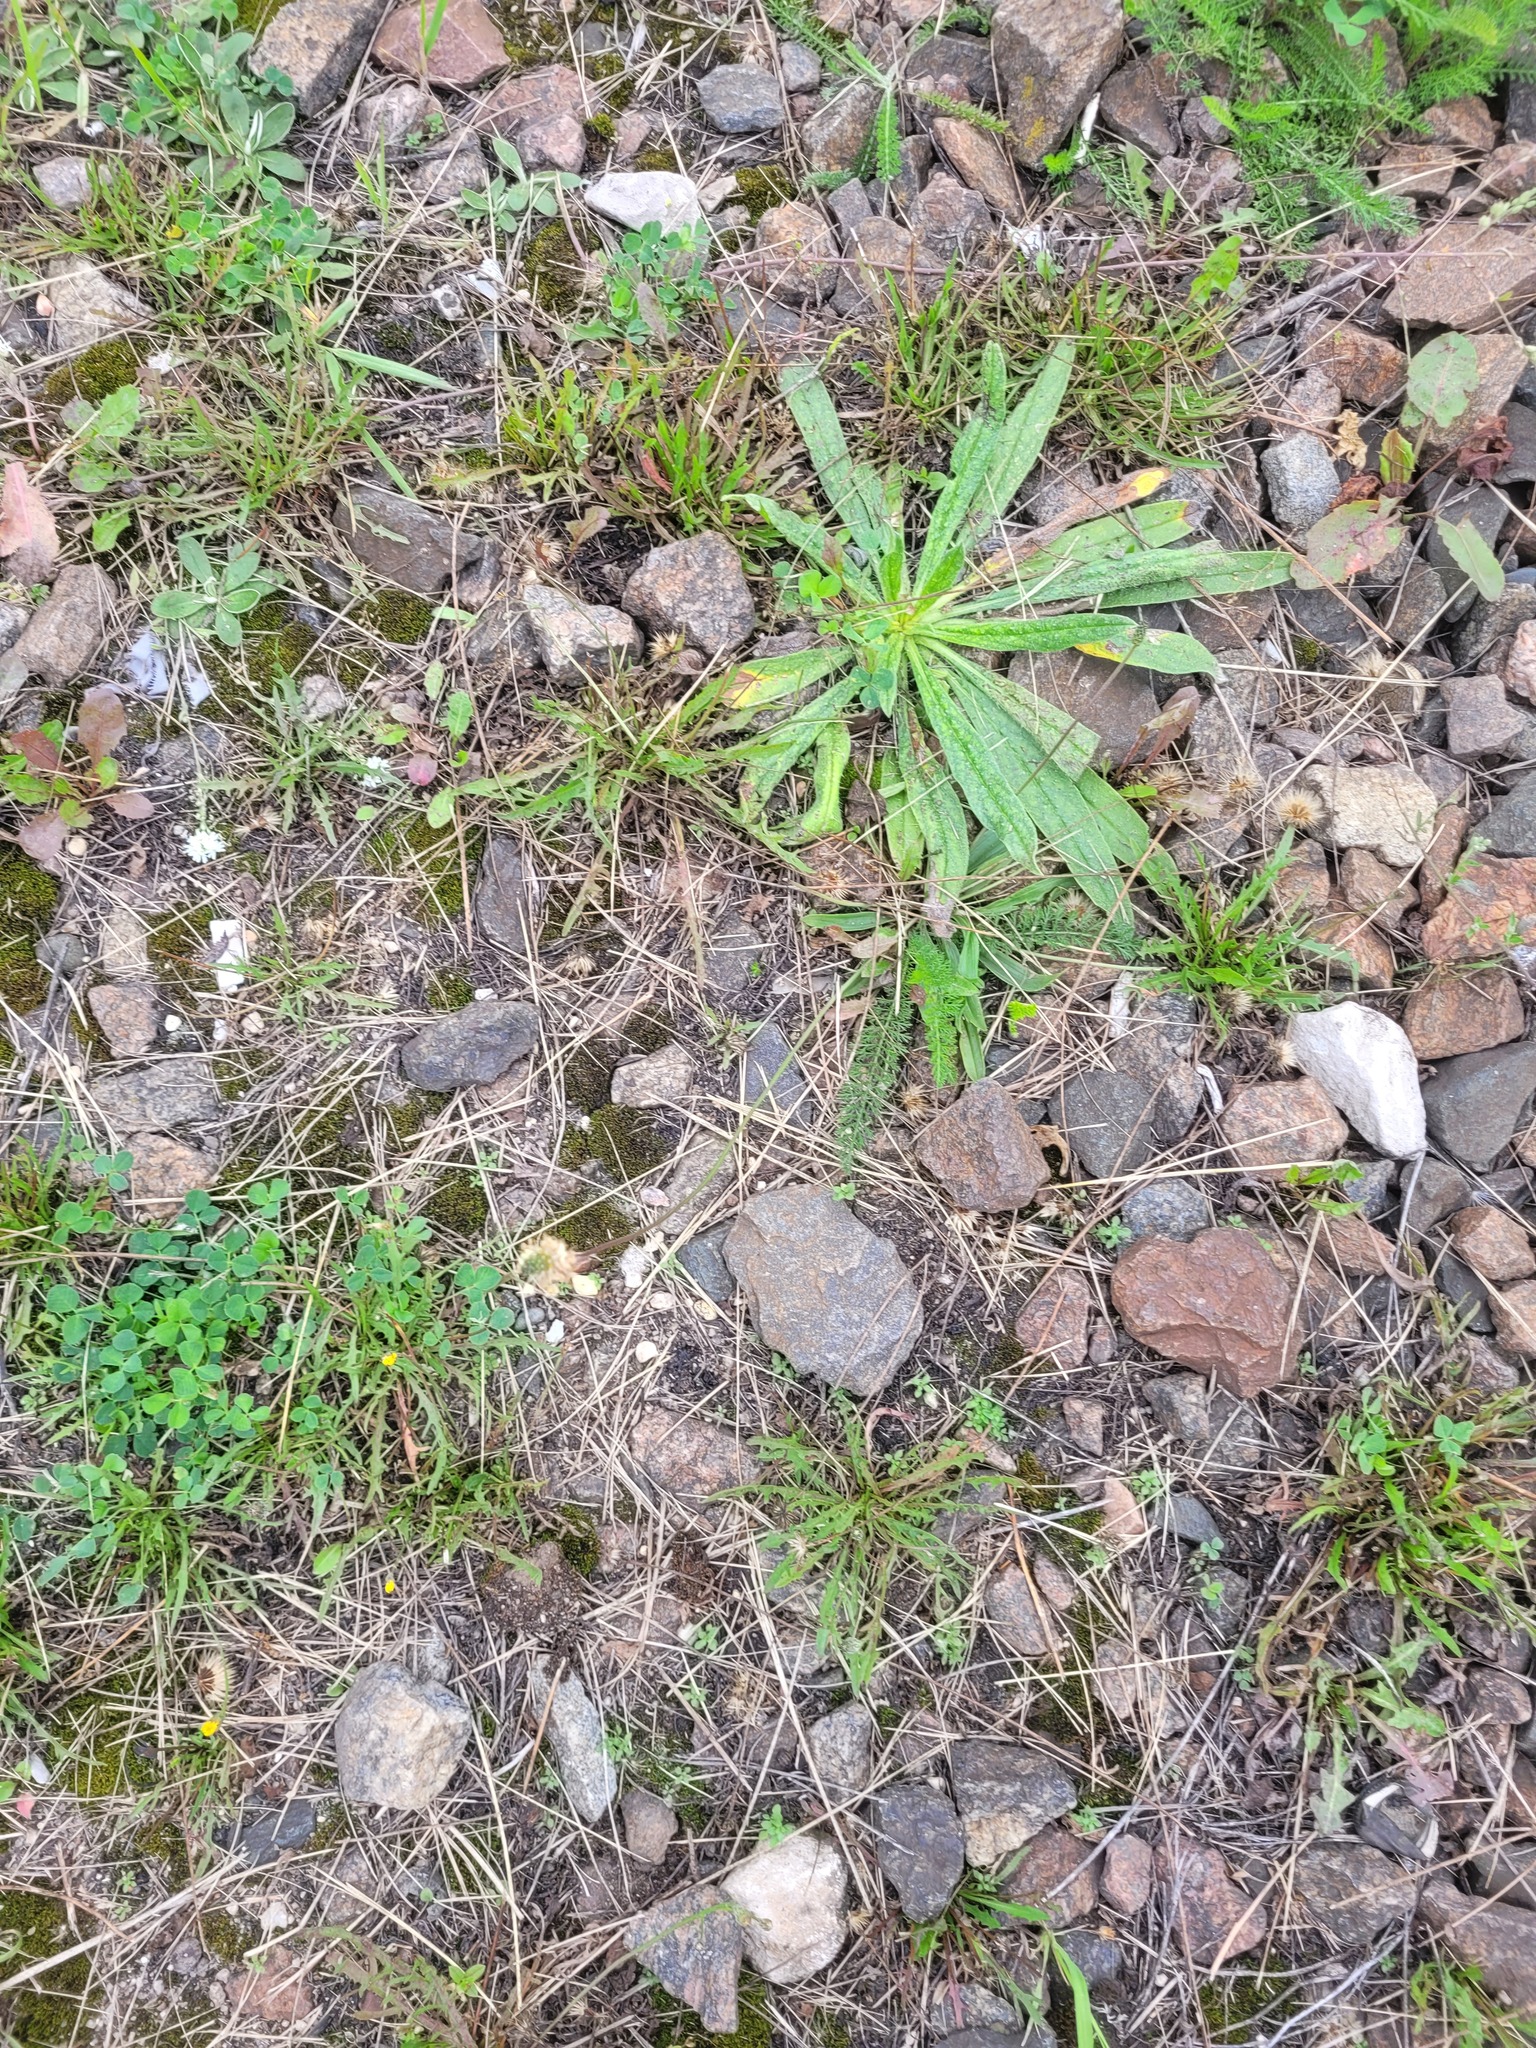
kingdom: Plantae
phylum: Tracheophyta
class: Magnoliopsida
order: Lamiales
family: Plantaginaceae
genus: Plantago
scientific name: Plantago lanceolata
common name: Ribwort plantain
